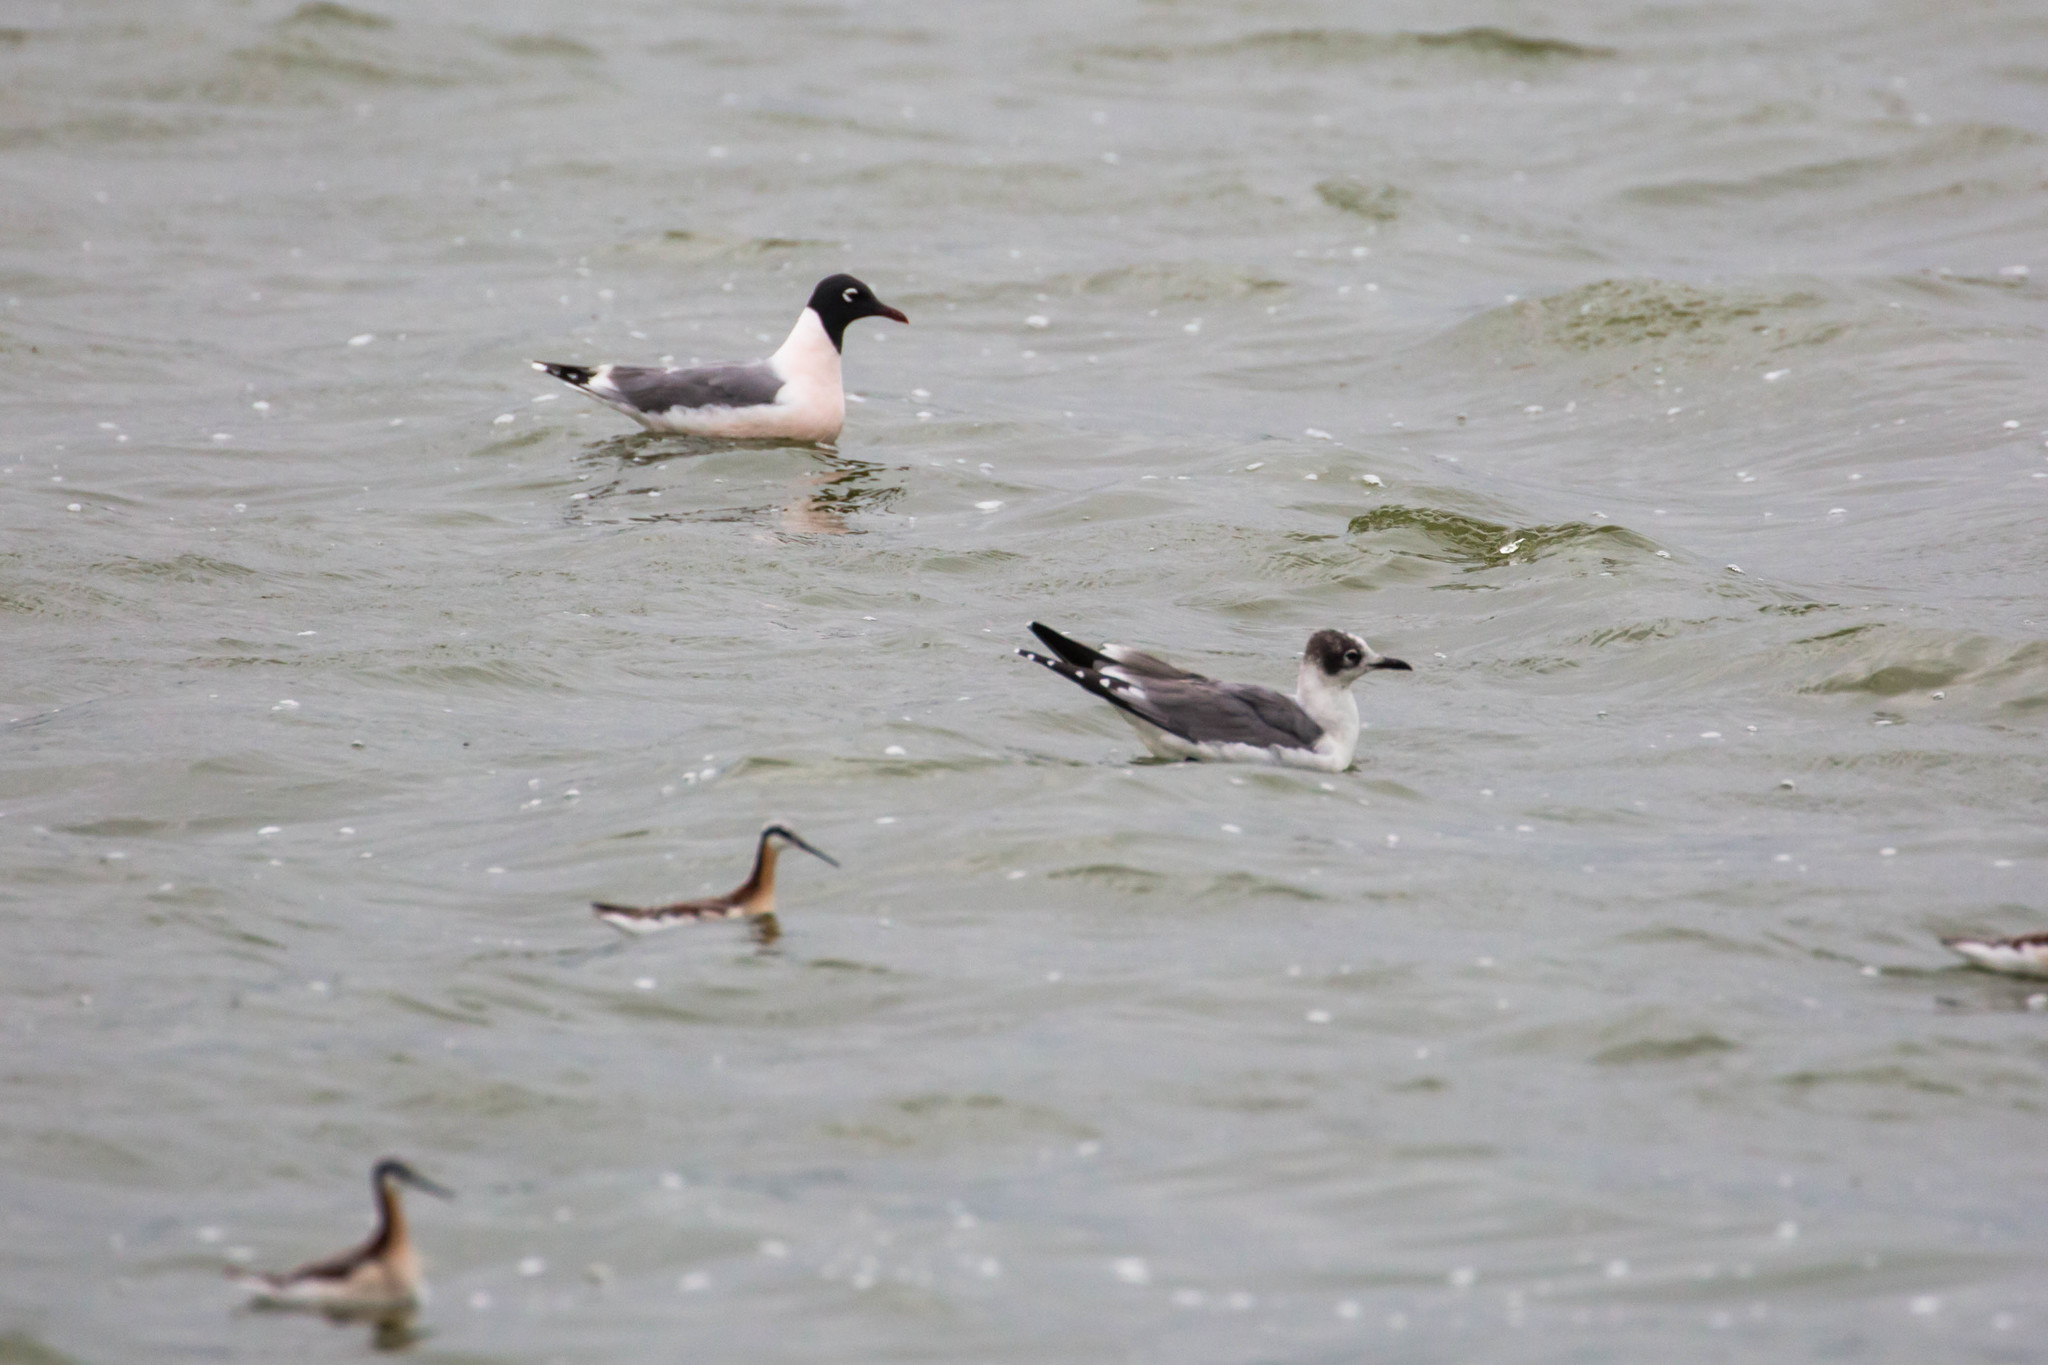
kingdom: Animalia
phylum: Chordata
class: Aves
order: Charadriiformes
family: Laridae
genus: Leucophaeus
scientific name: Leucophaeus pipixcan
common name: Franklin's gull
